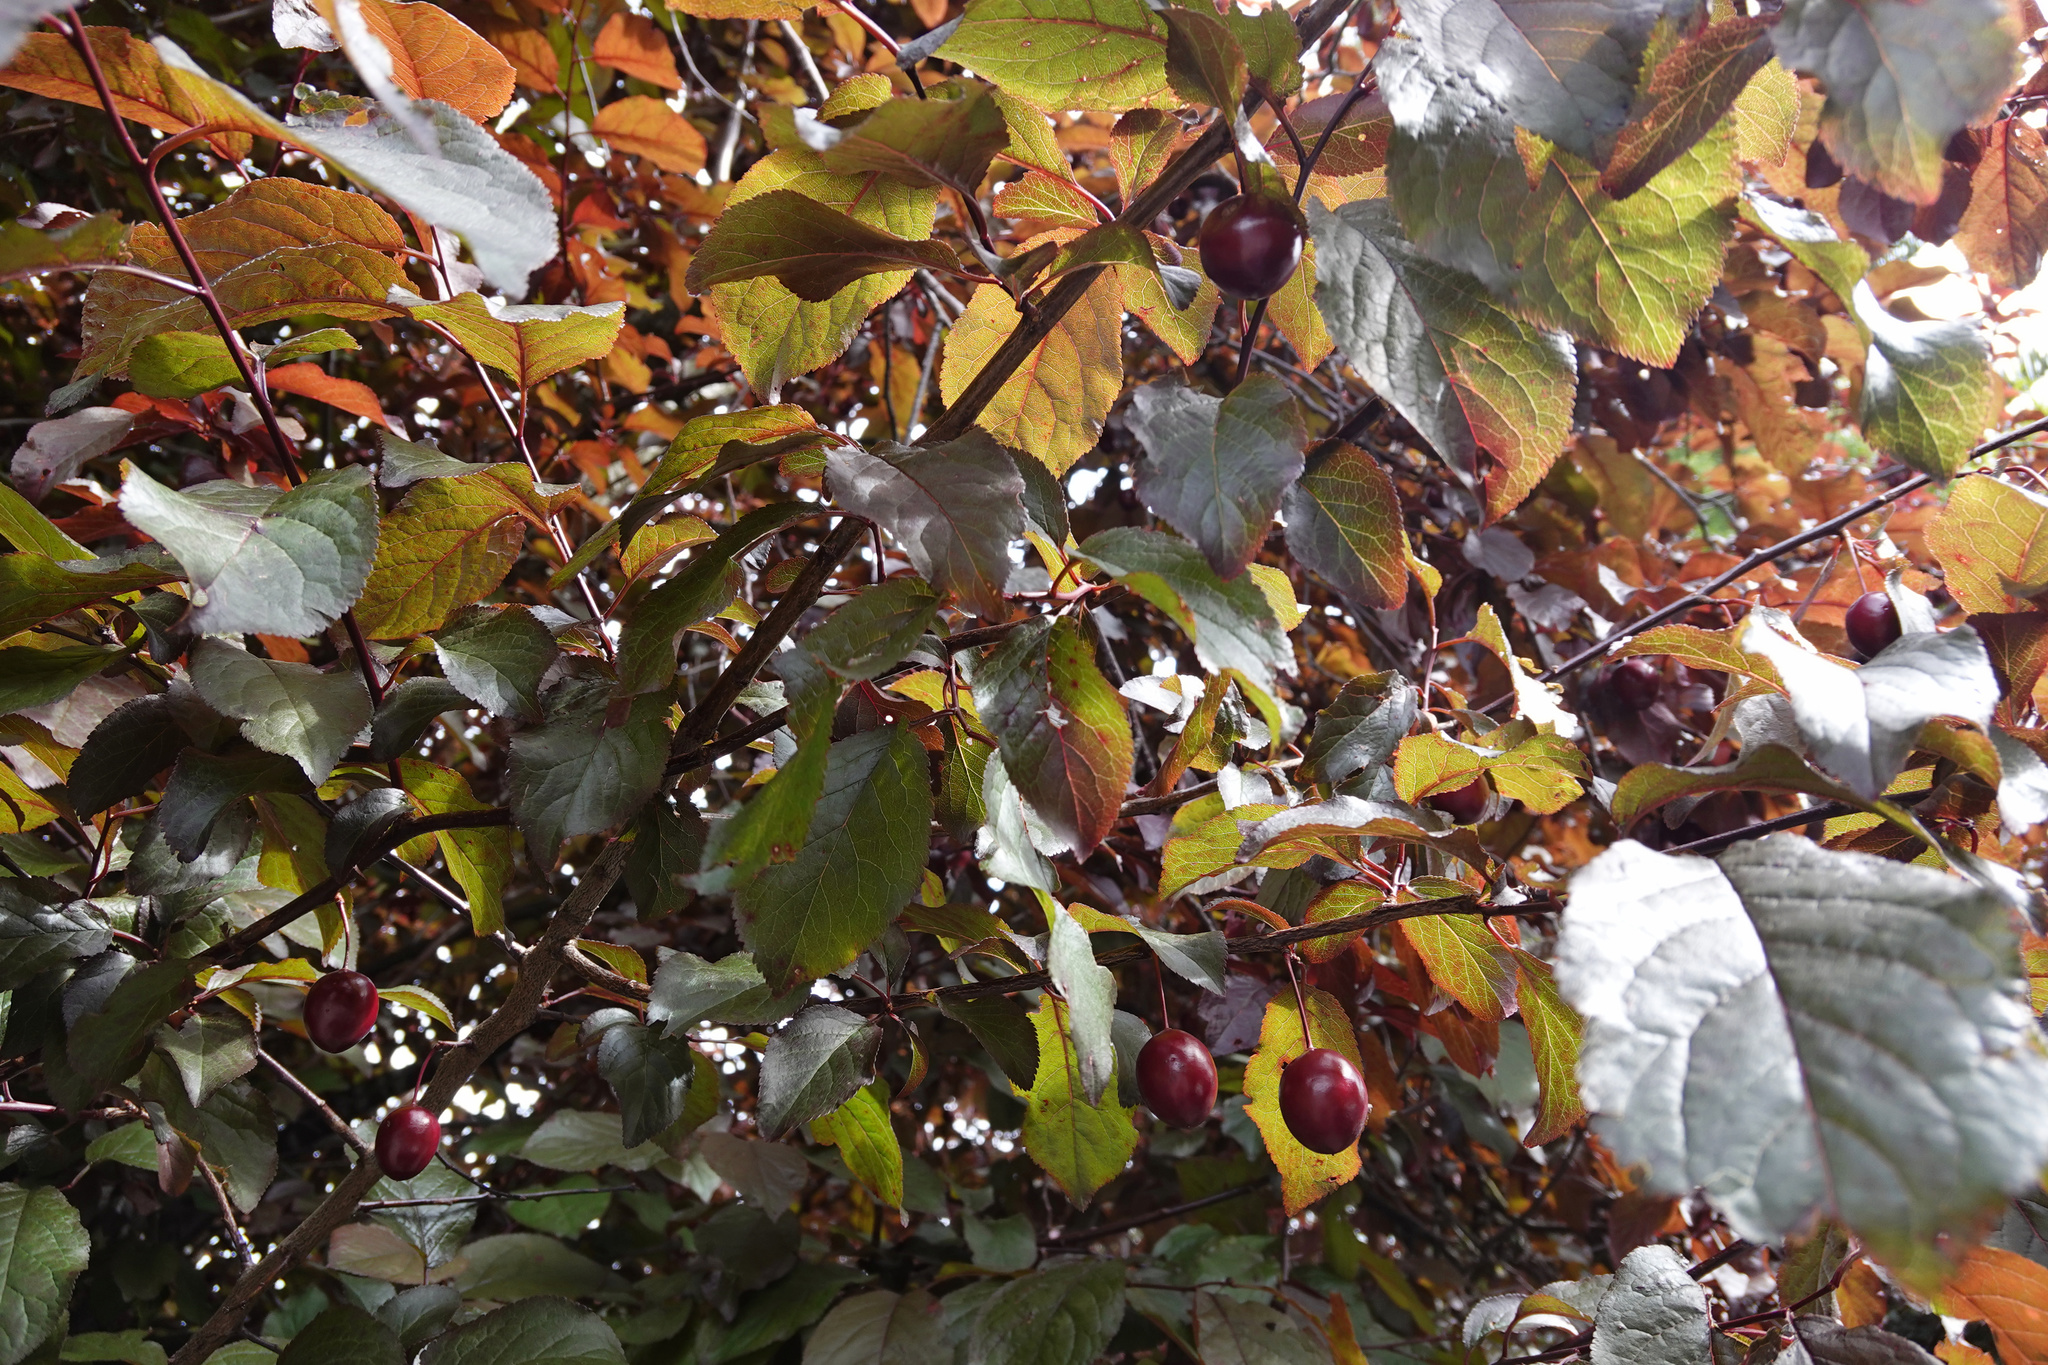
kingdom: Plantae
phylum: Tracheophyta
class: Magnoliopsida
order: Rosales
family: Rosaceae
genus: Prunus
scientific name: Prunus cerasifera
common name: Cherry plum
